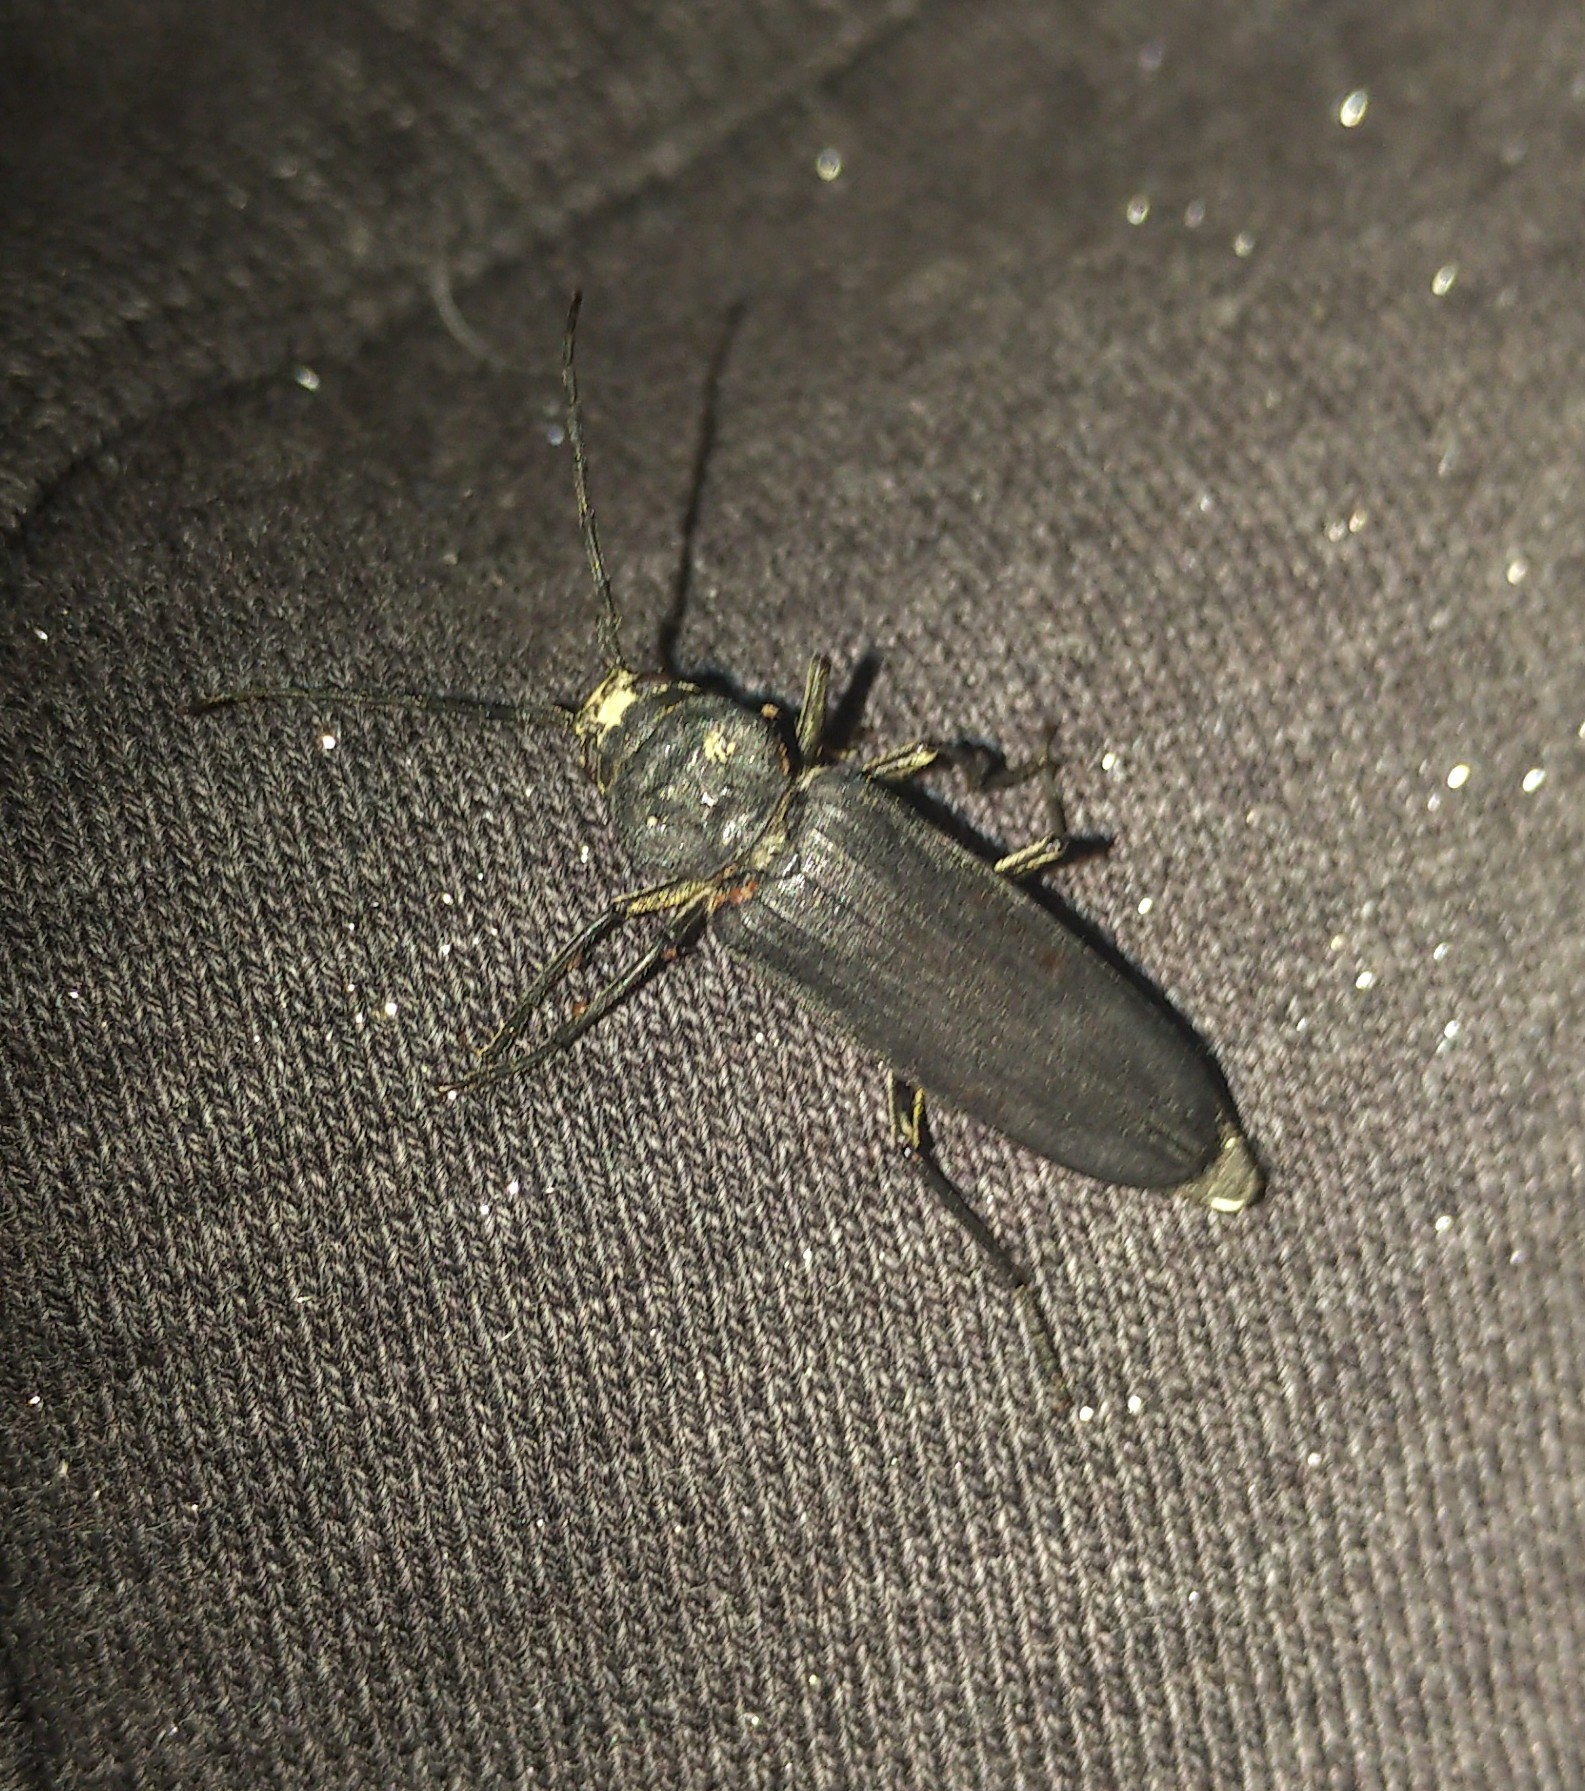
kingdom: Animalia
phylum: Arthropoda
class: Insecta
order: Coleoptera
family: Cerambycidae
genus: Arhopalus
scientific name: Arhopalus asperatus
